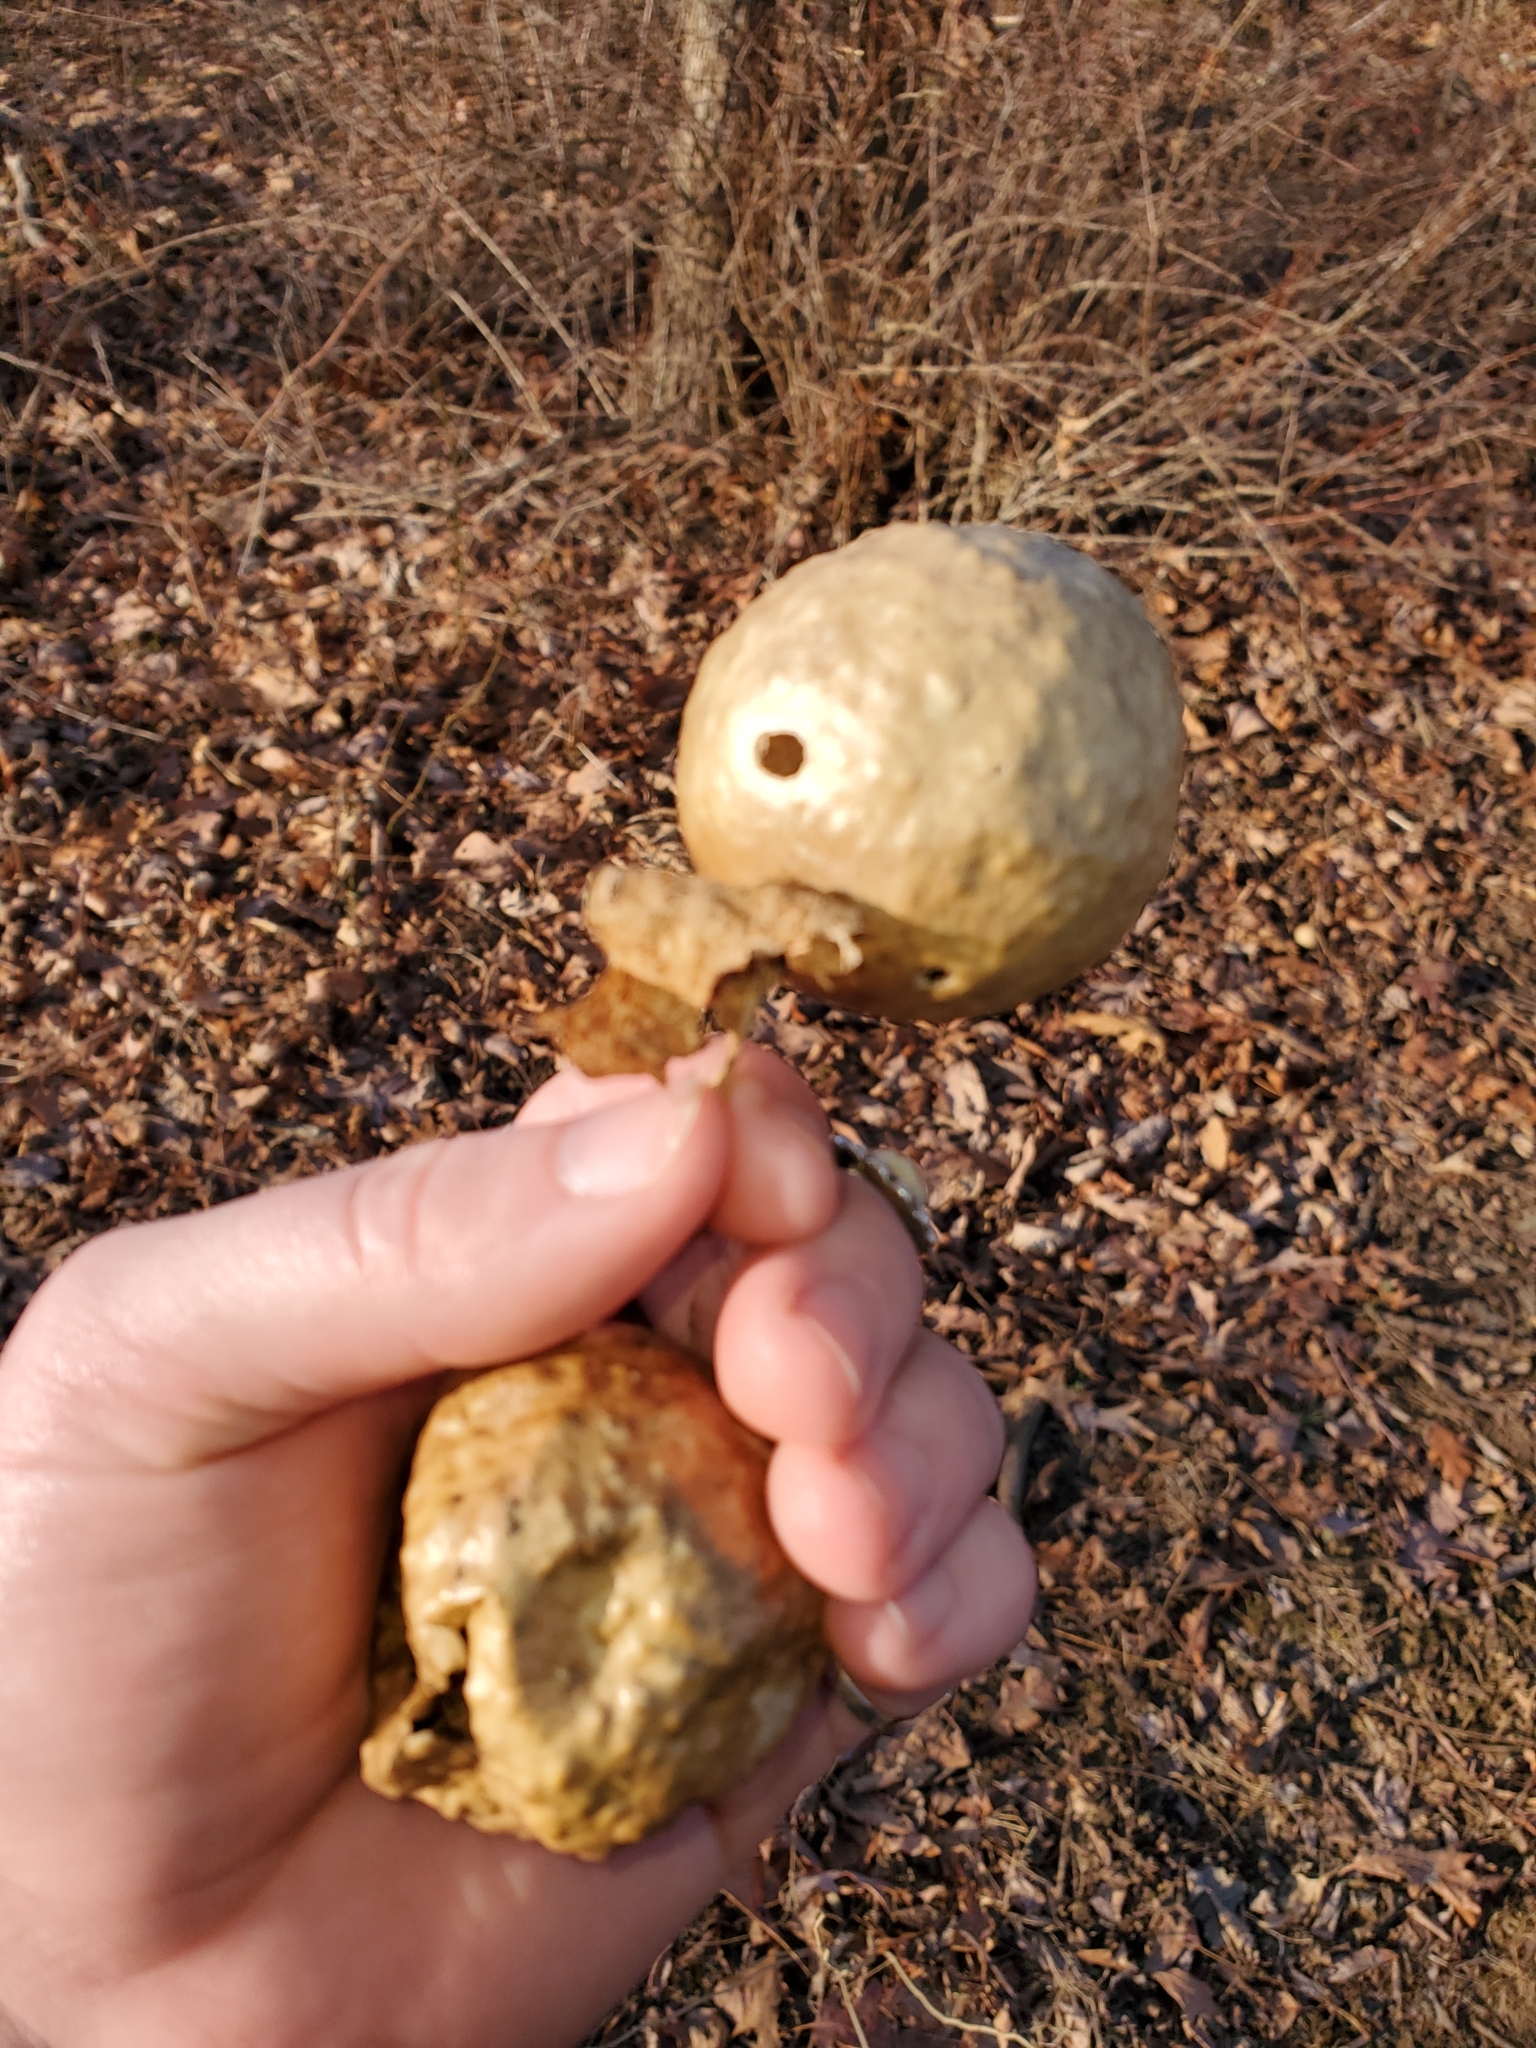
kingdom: Animalia
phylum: Arthropoda
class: Insecta
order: Hymenoptera
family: Cynipidae
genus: Amphibolips
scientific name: Amphibolips
